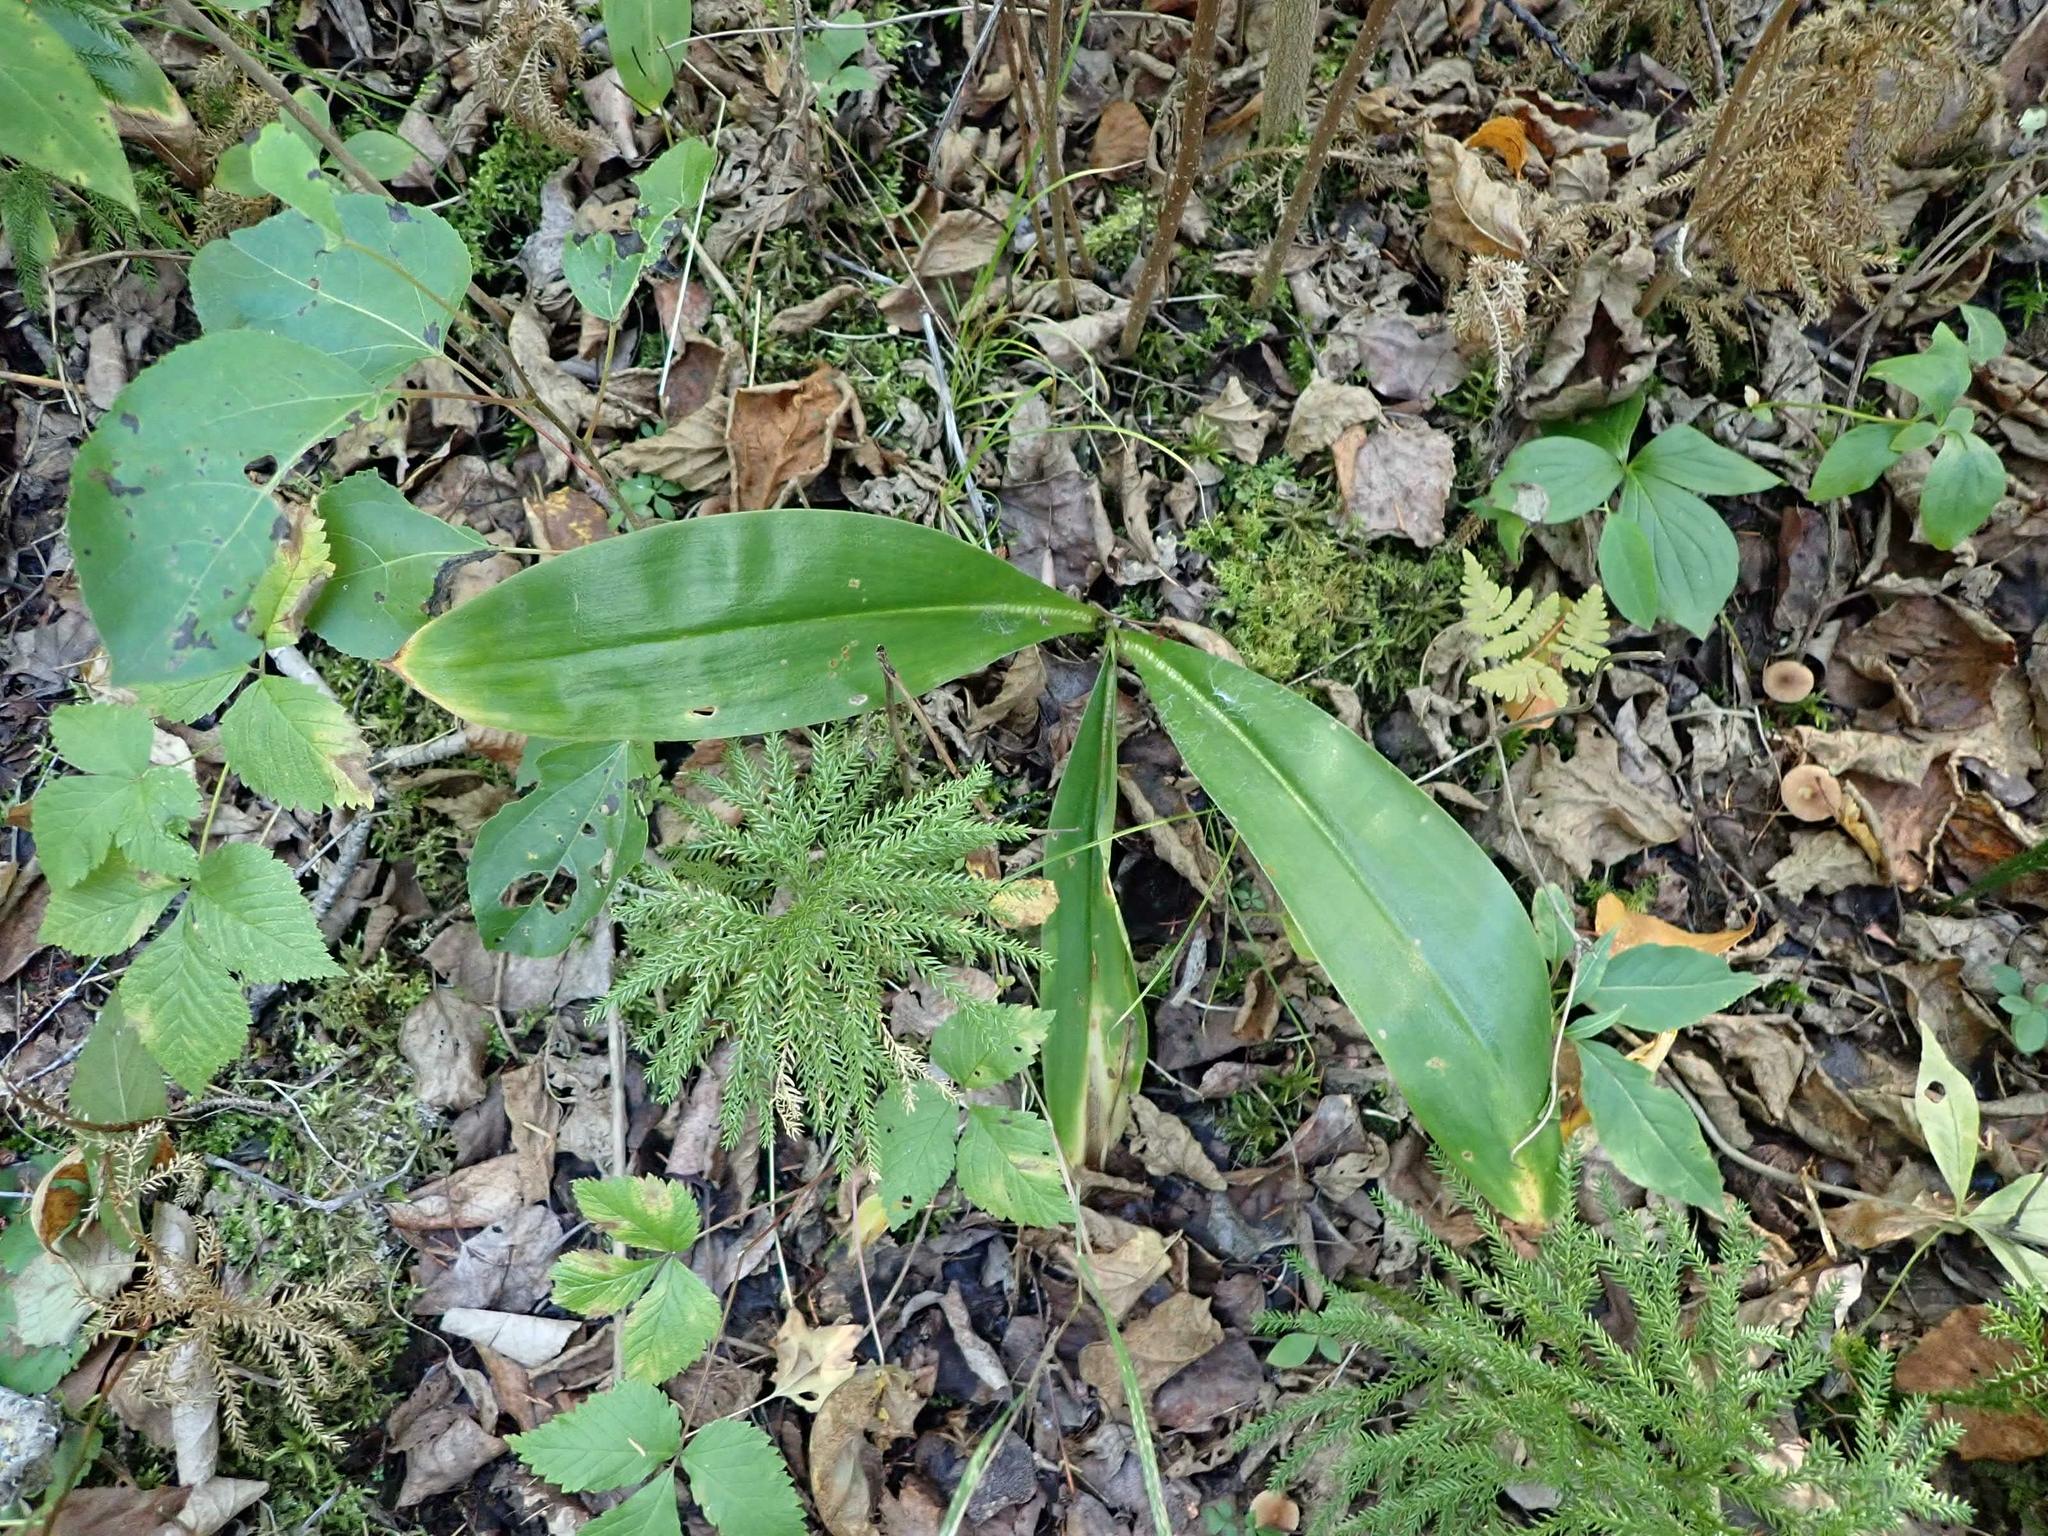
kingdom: Plantae
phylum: Tracheophyta
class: Liliopsida
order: Liliales
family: Liliaceae
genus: Clintonia
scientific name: Clintonia borealis
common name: Yellow clintonia
